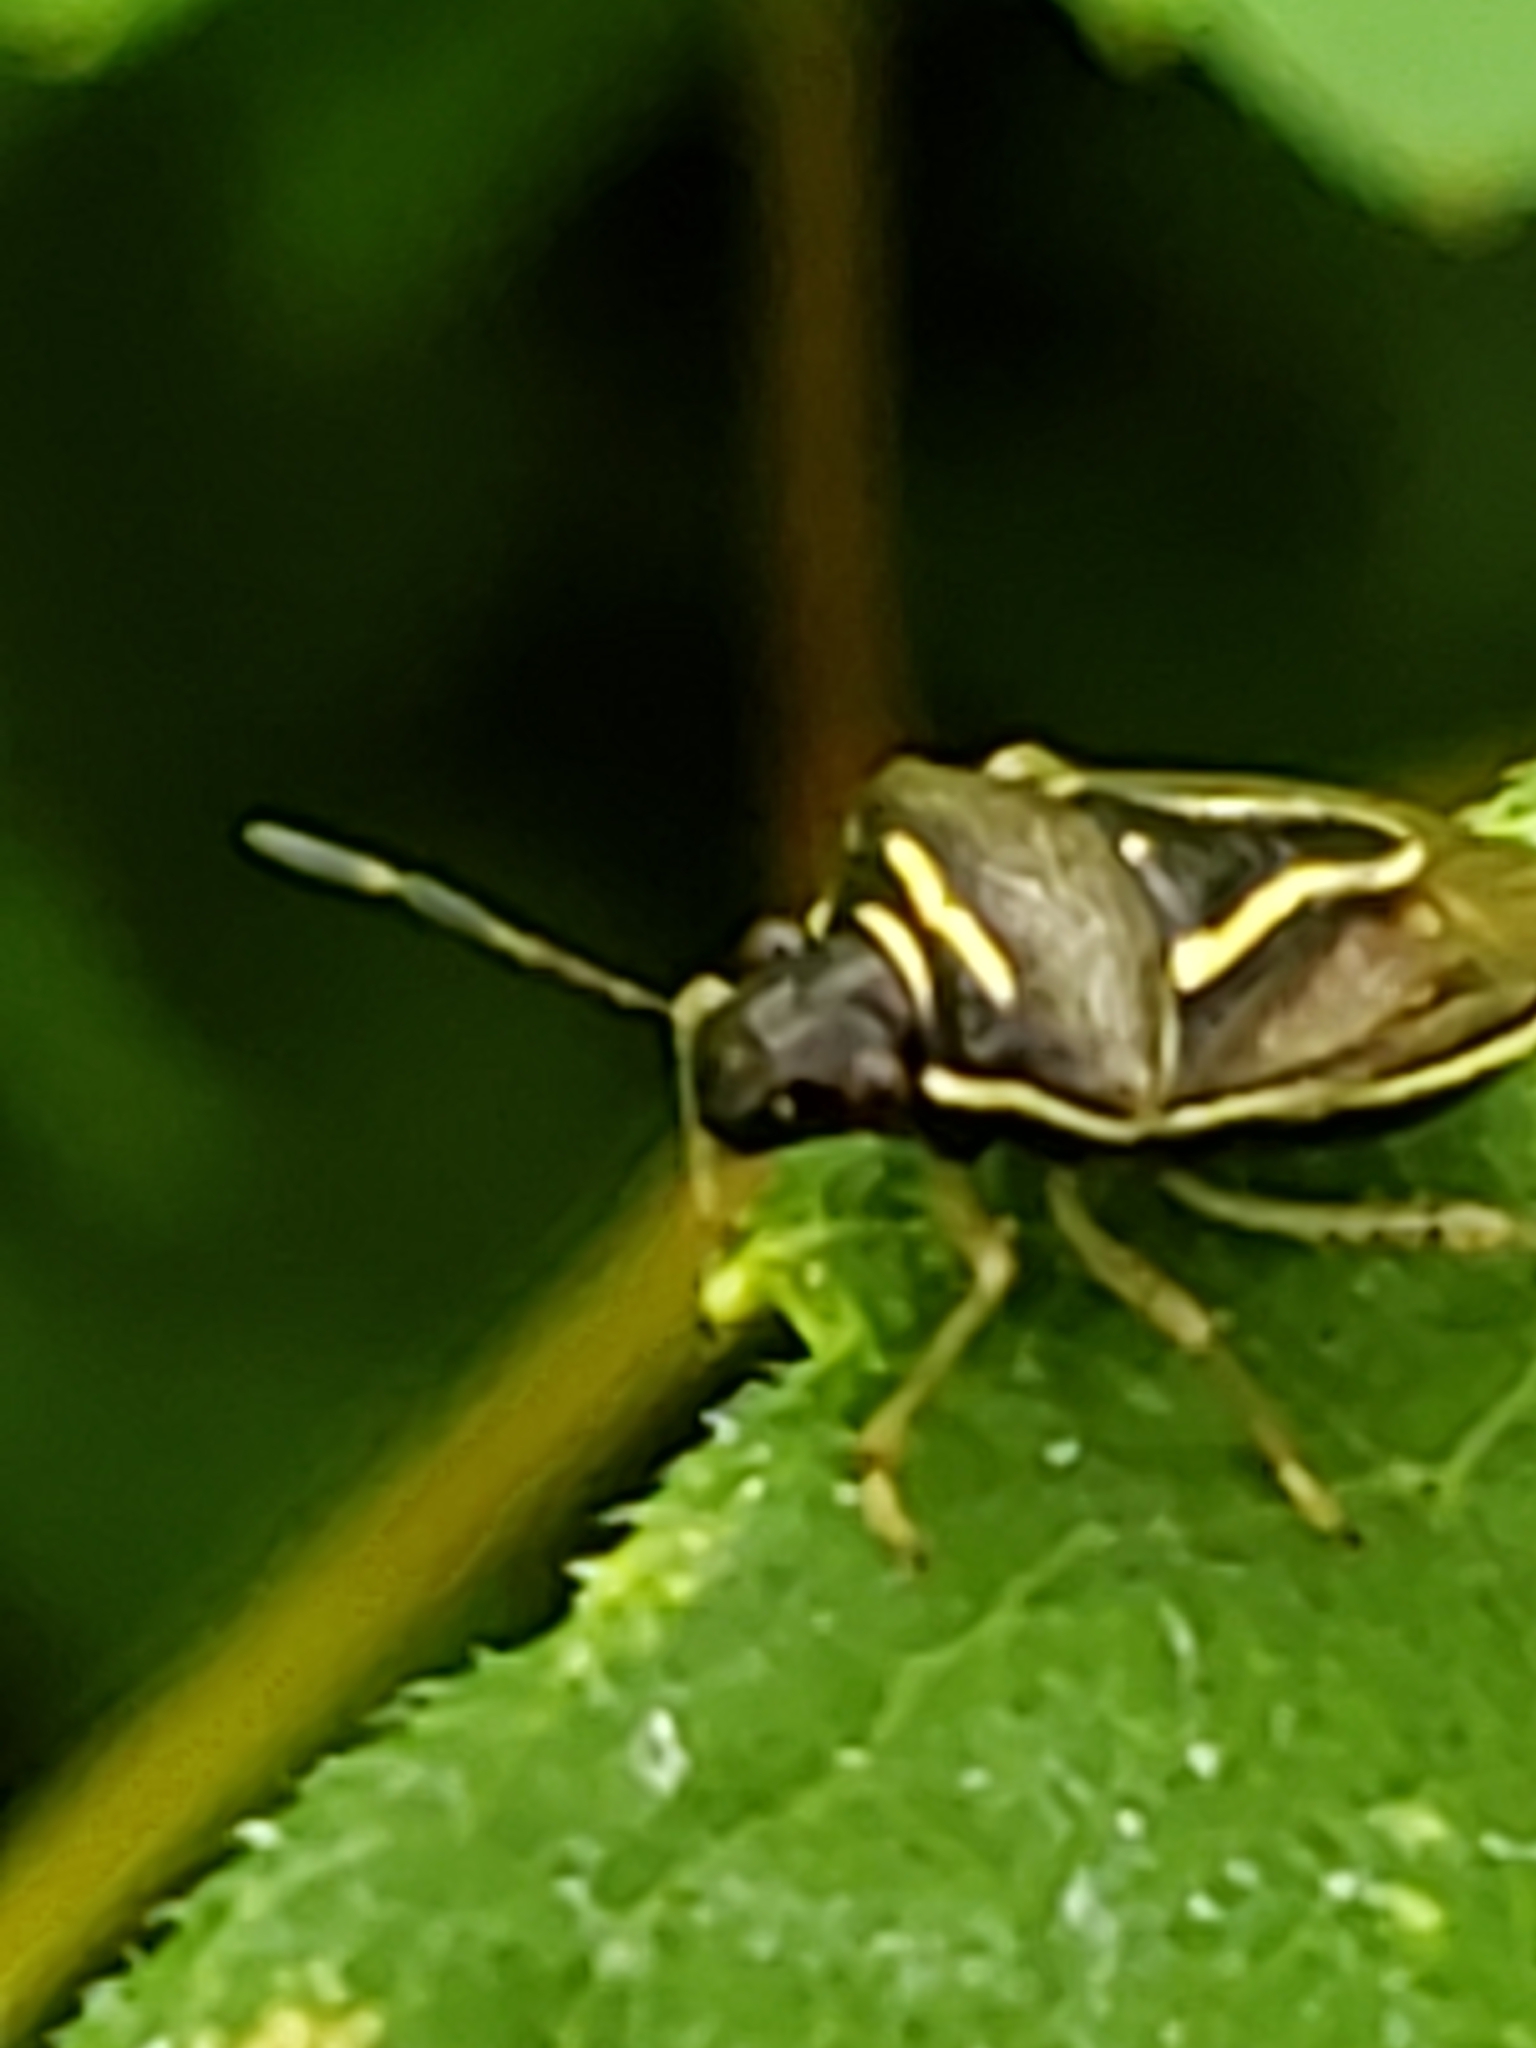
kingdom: Animalia
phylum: Arthropoda
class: Insecta
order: Hemiptera
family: Pentatomidae
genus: Mormidea
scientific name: Mormidea lugens
